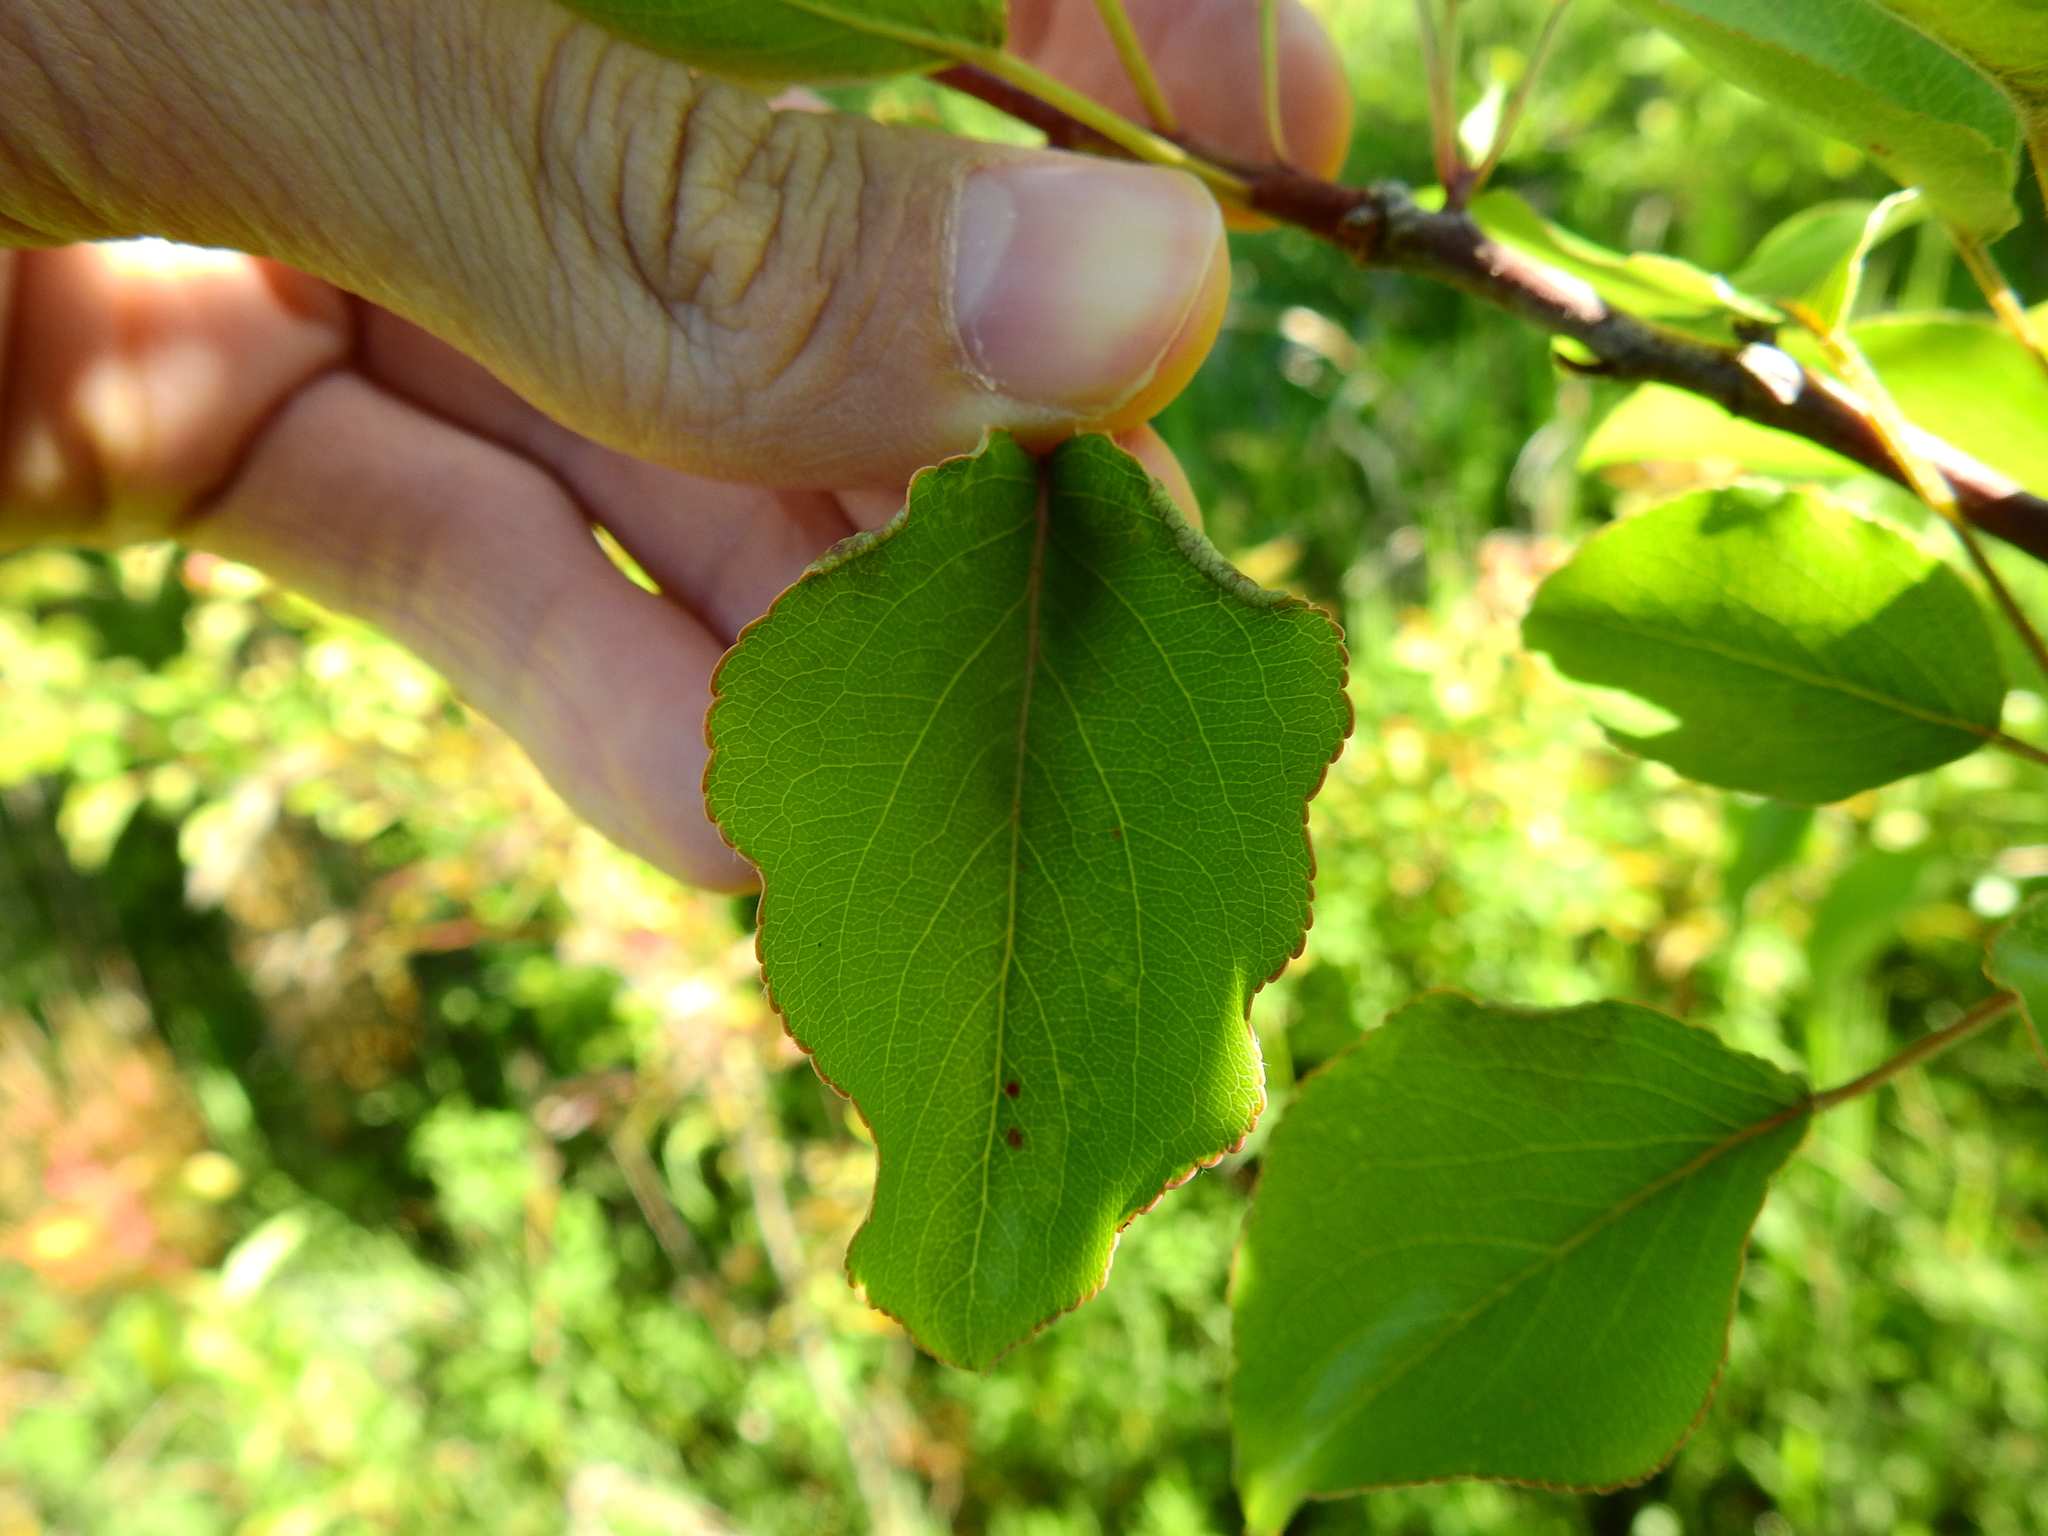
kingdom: Animalia
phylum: Arthropoda
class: Arachnida
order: Trombidiformes
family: Eriophyidae
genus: Eriophyes
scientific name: Eriophyes marginemtorquens
